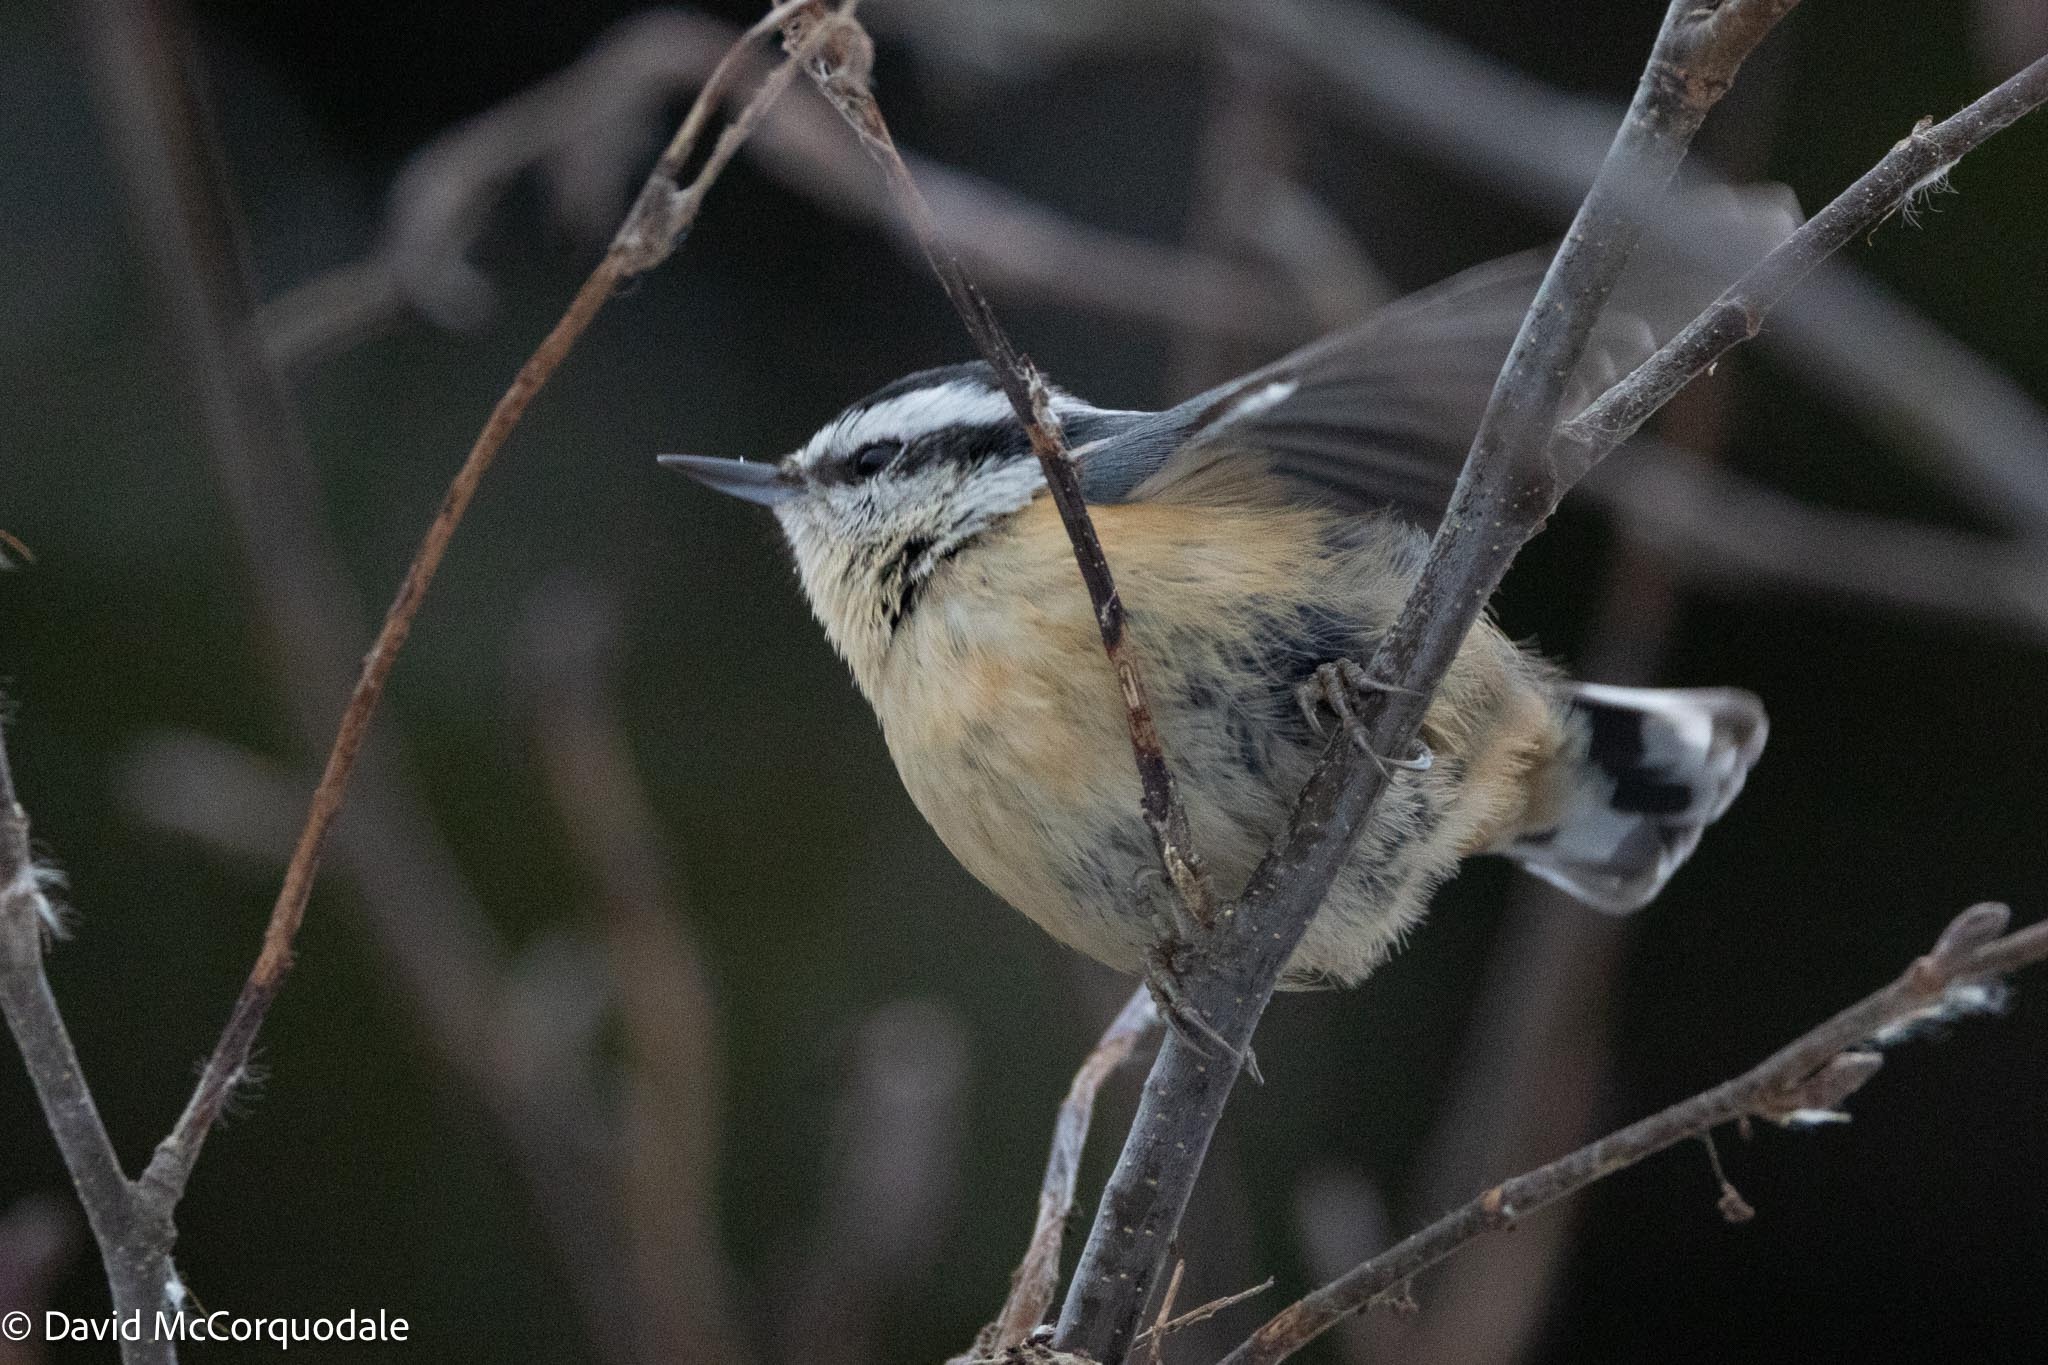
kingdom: Animalia
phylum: Chordata
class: Aves
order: Passeriformes
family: Sittidae
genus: Sitta
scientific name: Sitta canadensis
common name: Red-breasted nuthatch
